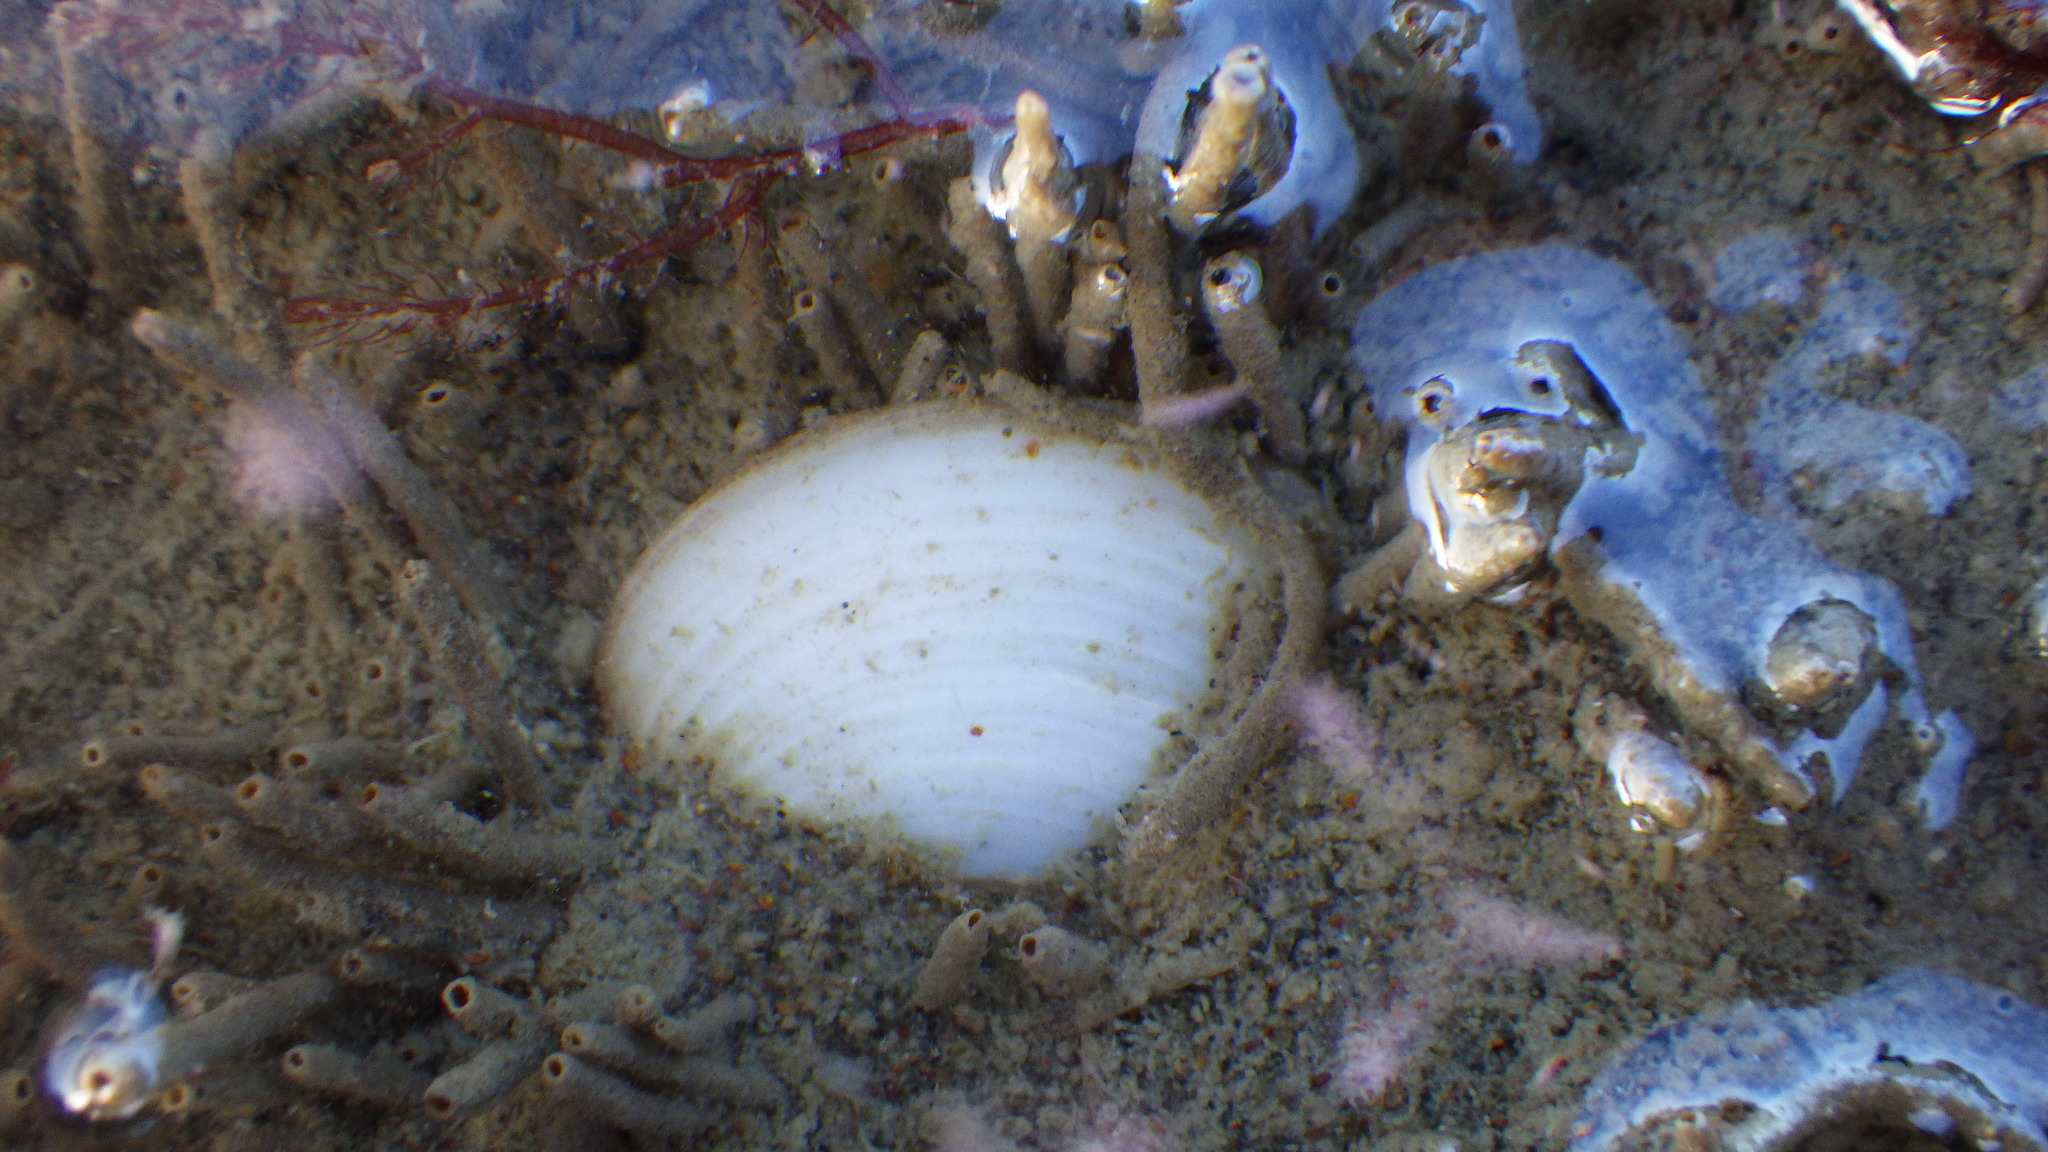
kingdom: Animalia
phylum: Mollusca
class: Bivalvia
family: Myochamidae
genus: Myadora
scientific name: Myadora striata
